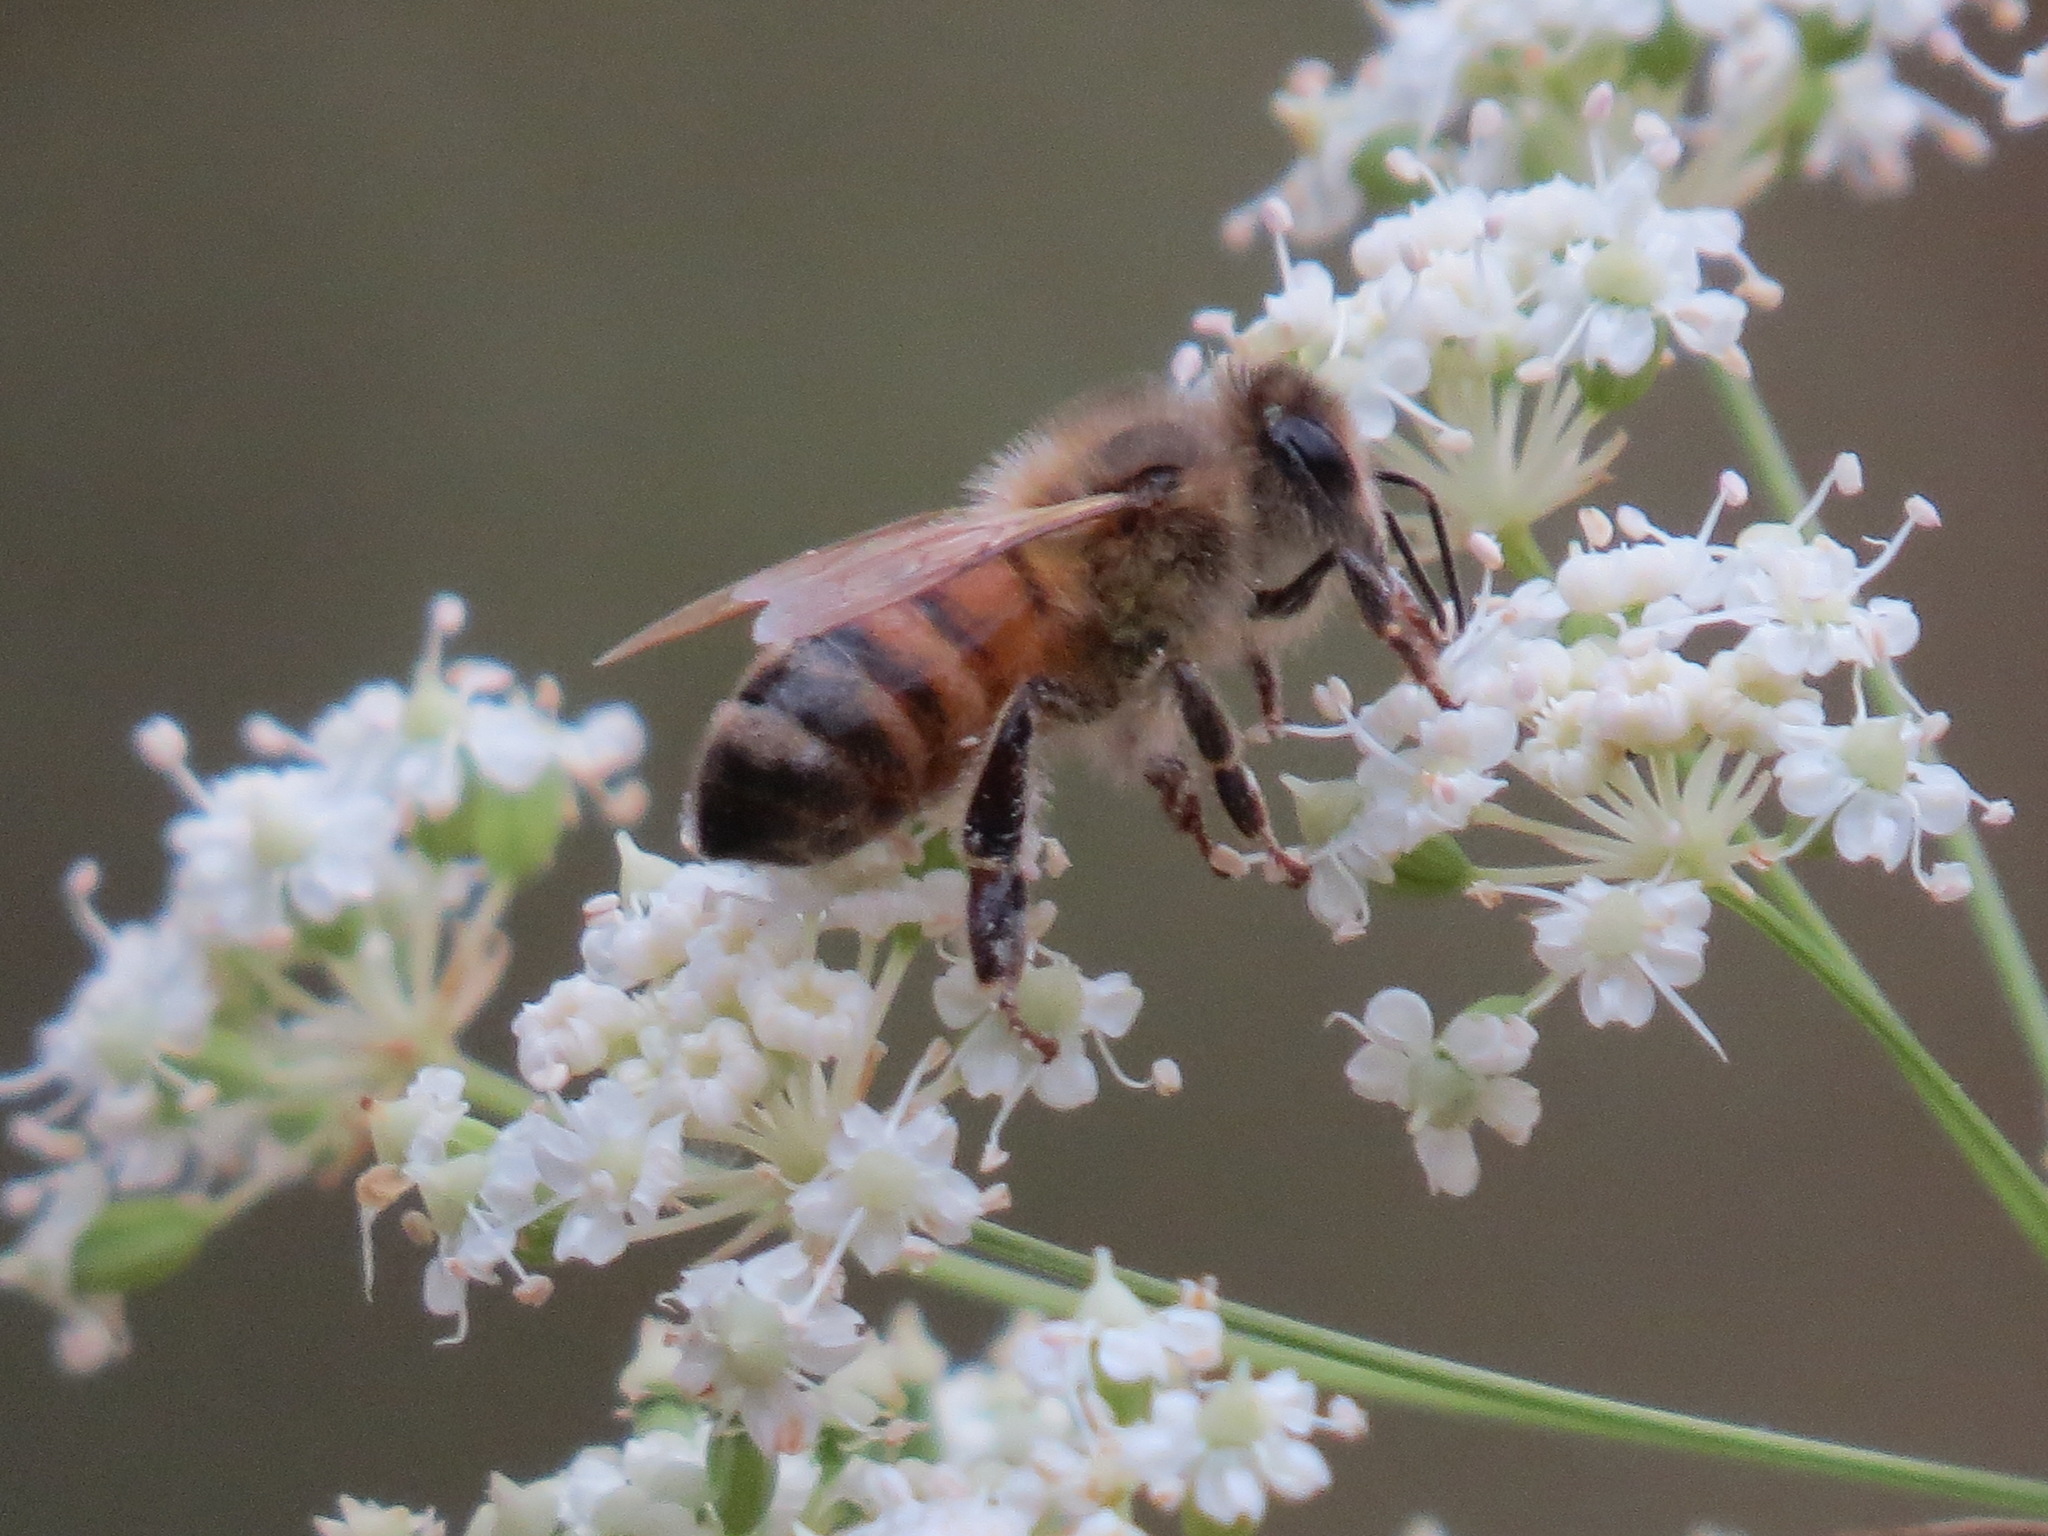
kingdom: Animalia
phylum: Arthropoda
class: Insecta
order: Hymenoptera
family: Apidae
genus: Apis
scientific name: Apis mellifera
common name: Honey bee
